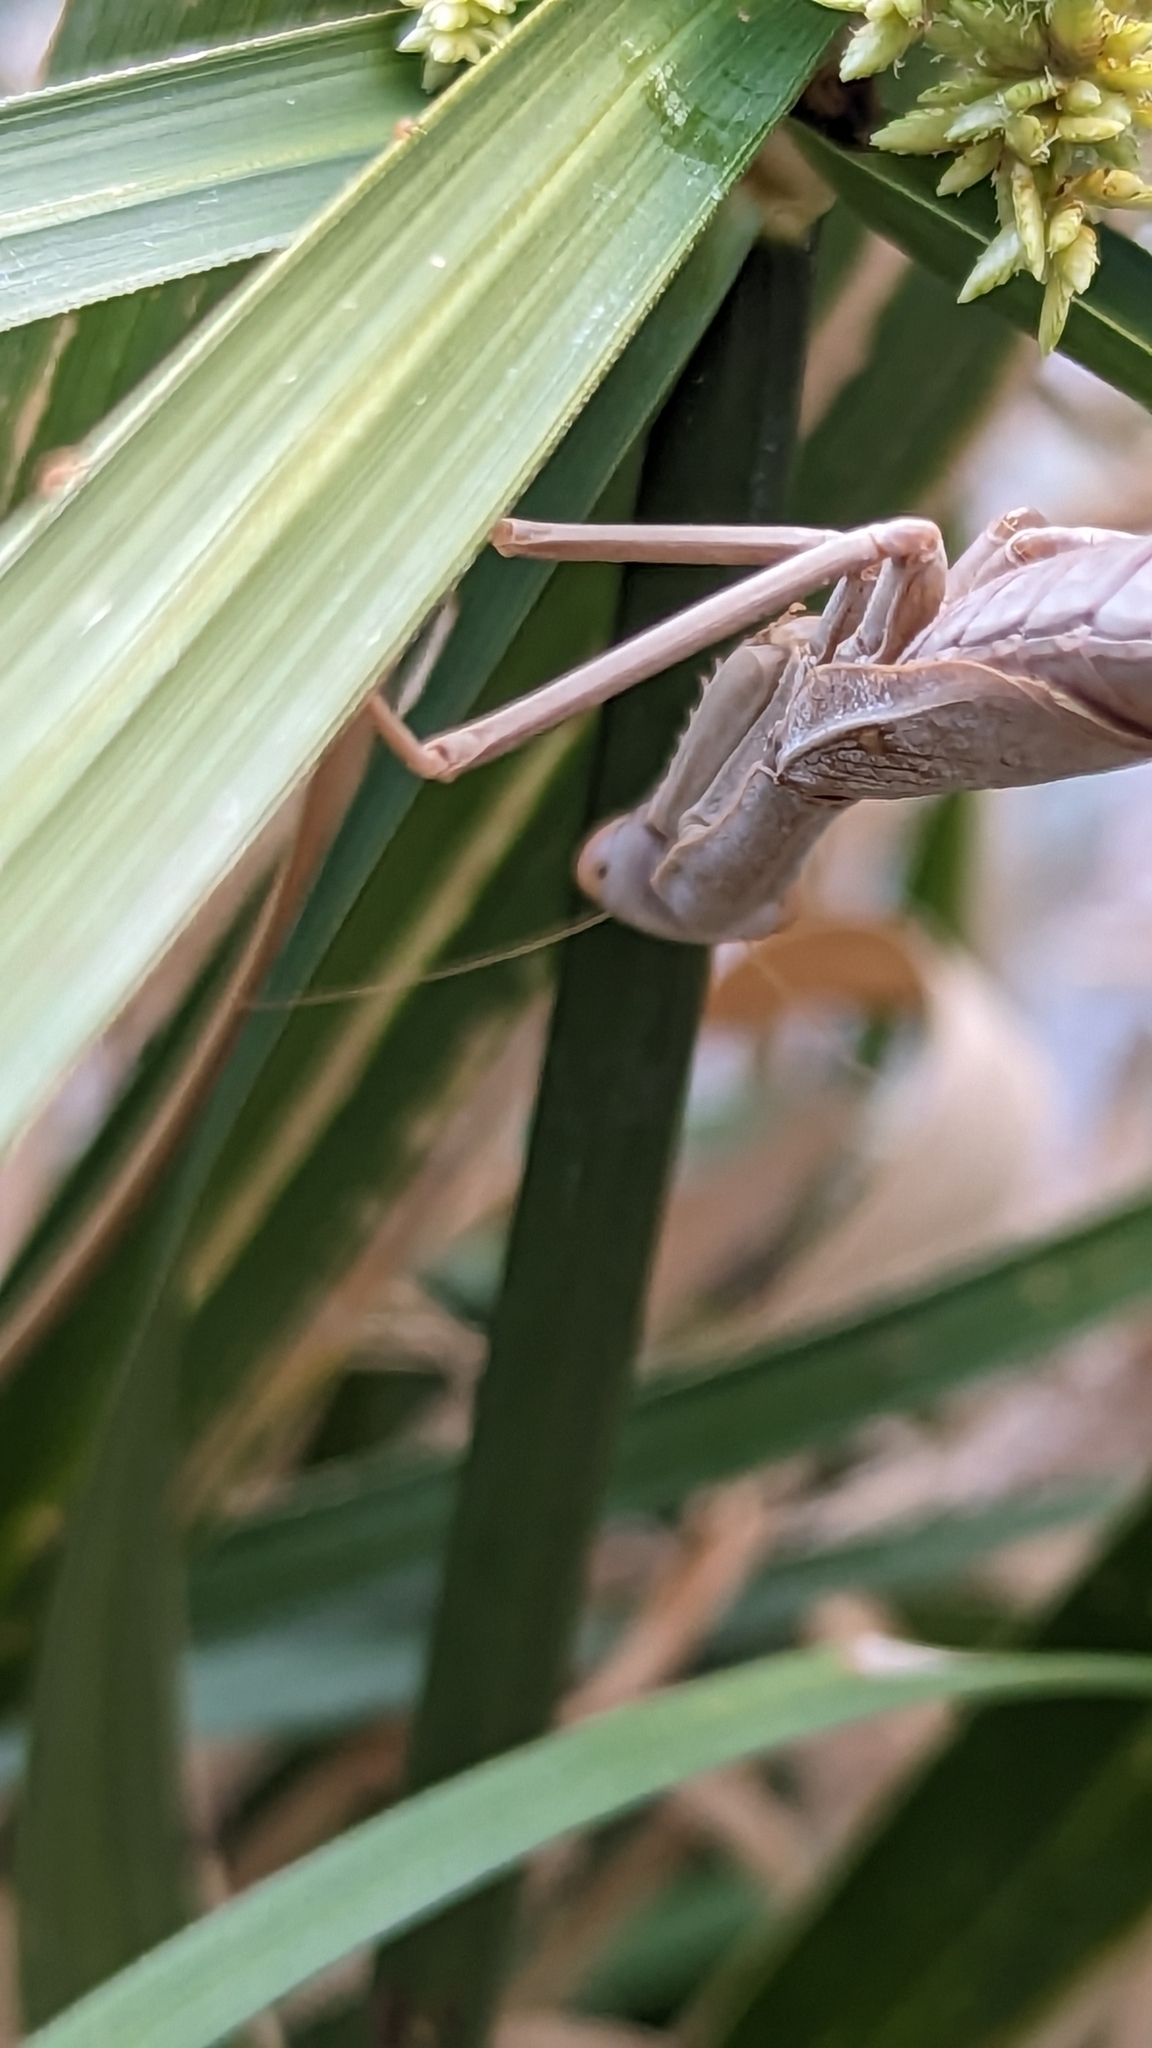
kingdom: Animalia
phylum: Arthropoda
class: Insecta
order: Mantodea
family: Eremiaphilidae
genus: Iris
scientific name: Iris oratoria
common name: Mediterranean mantis
